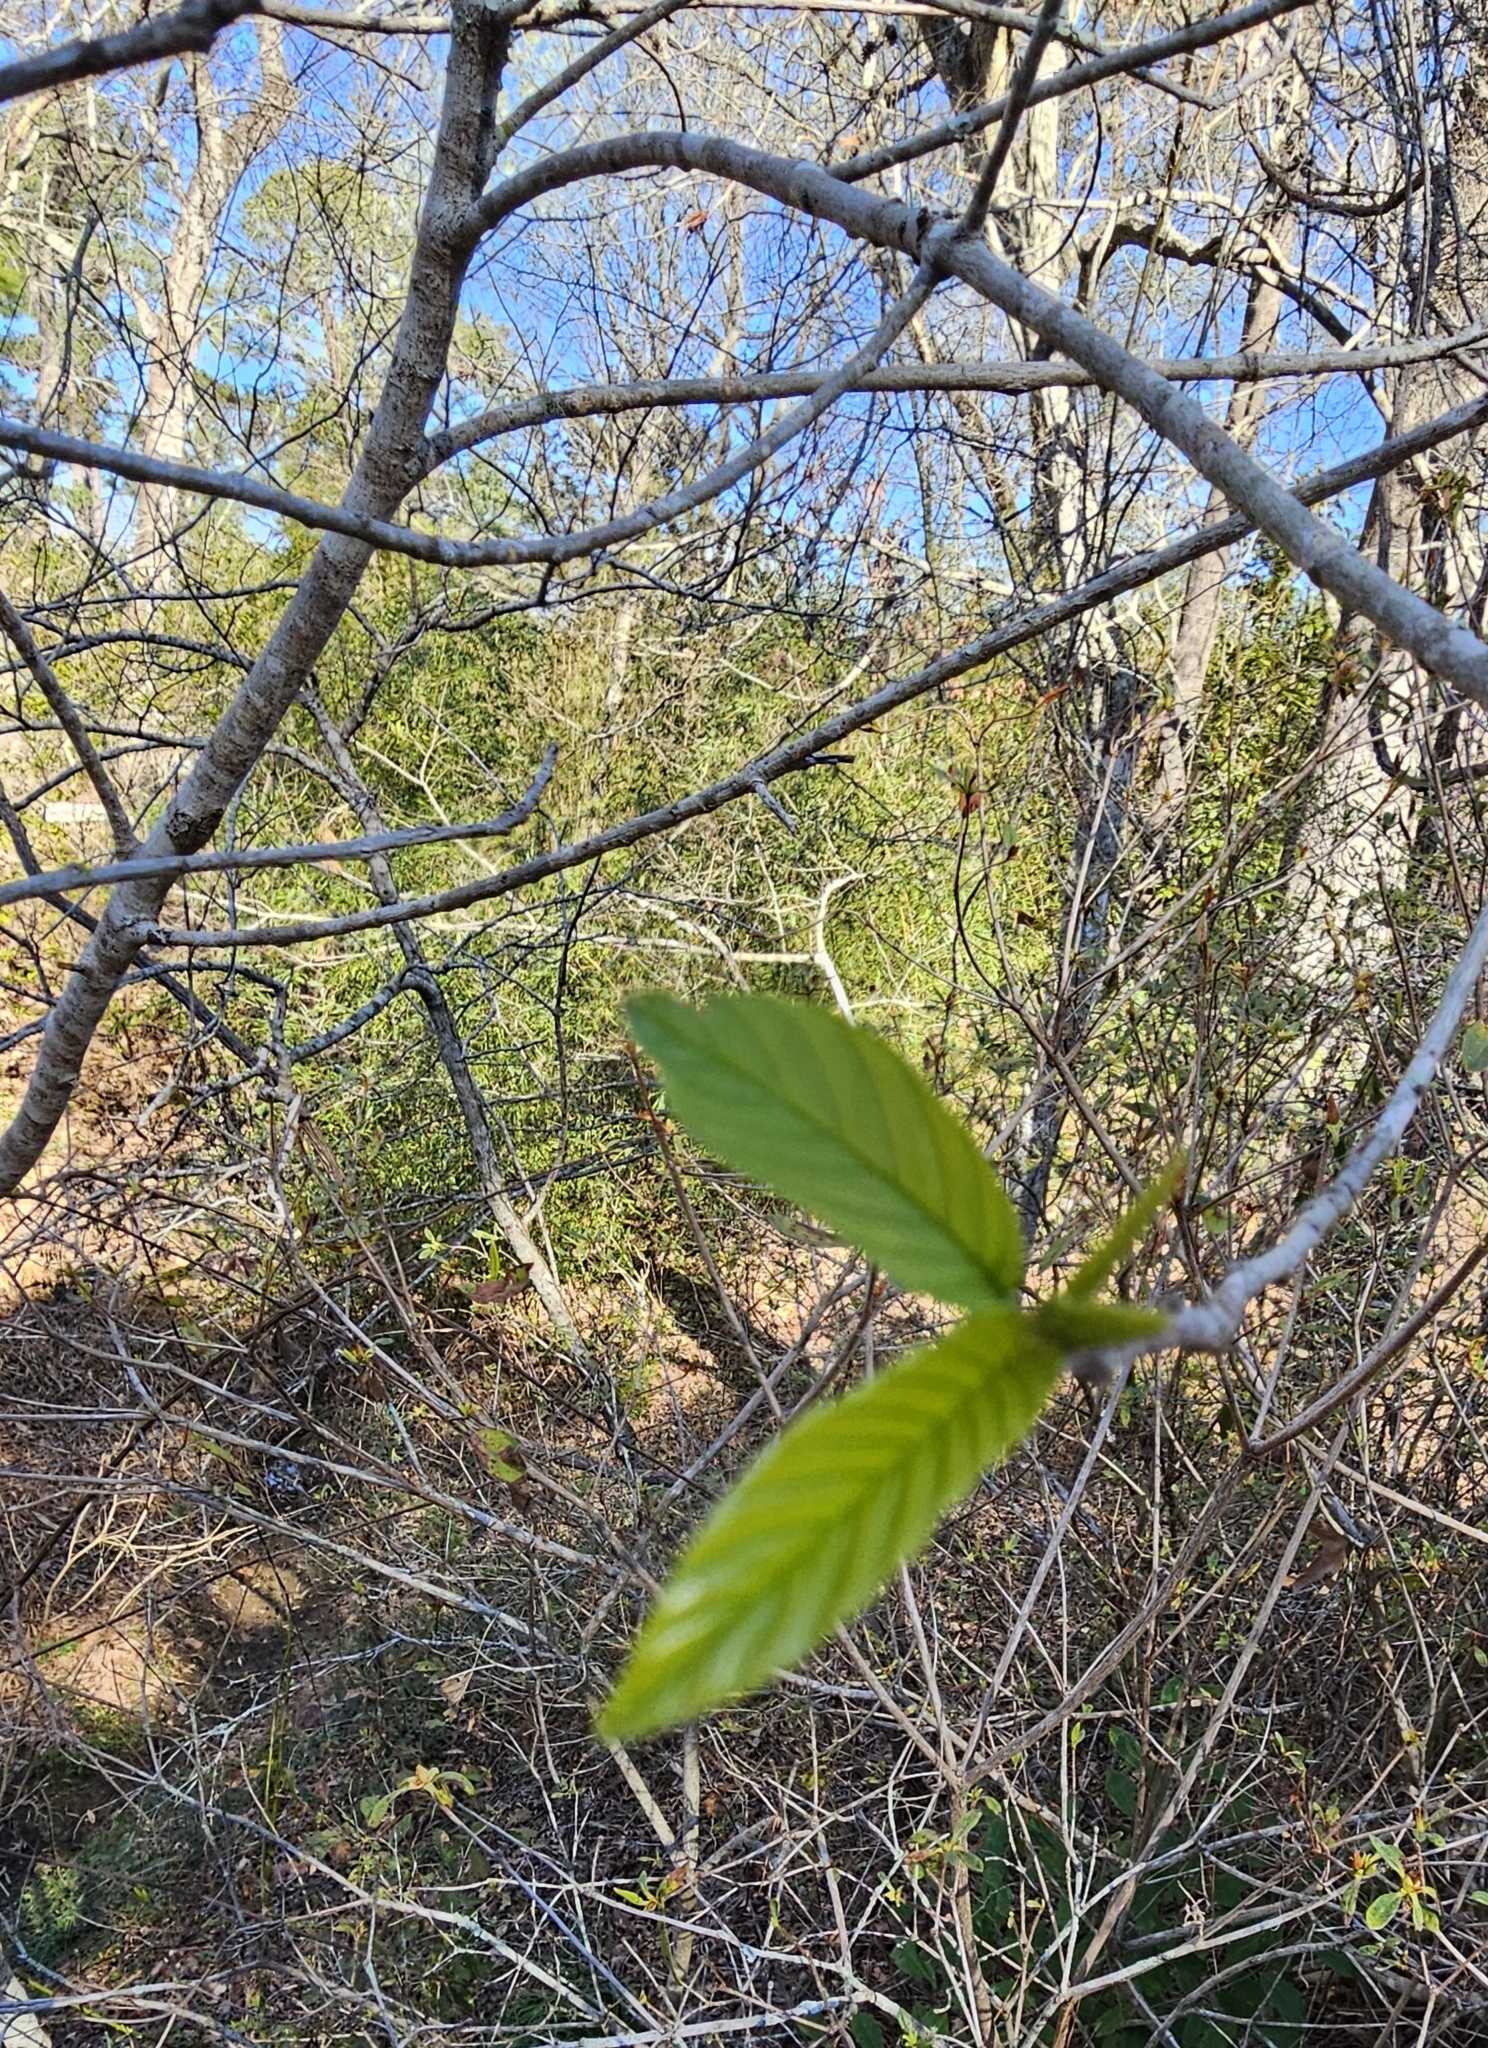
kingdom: Plantae
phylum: Tracheophyta
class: Magnoliopsida
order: Rosales
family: Rhamnaceae
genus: Frangula
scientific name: Frangula caroliniana
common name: Carolina buckthorn
